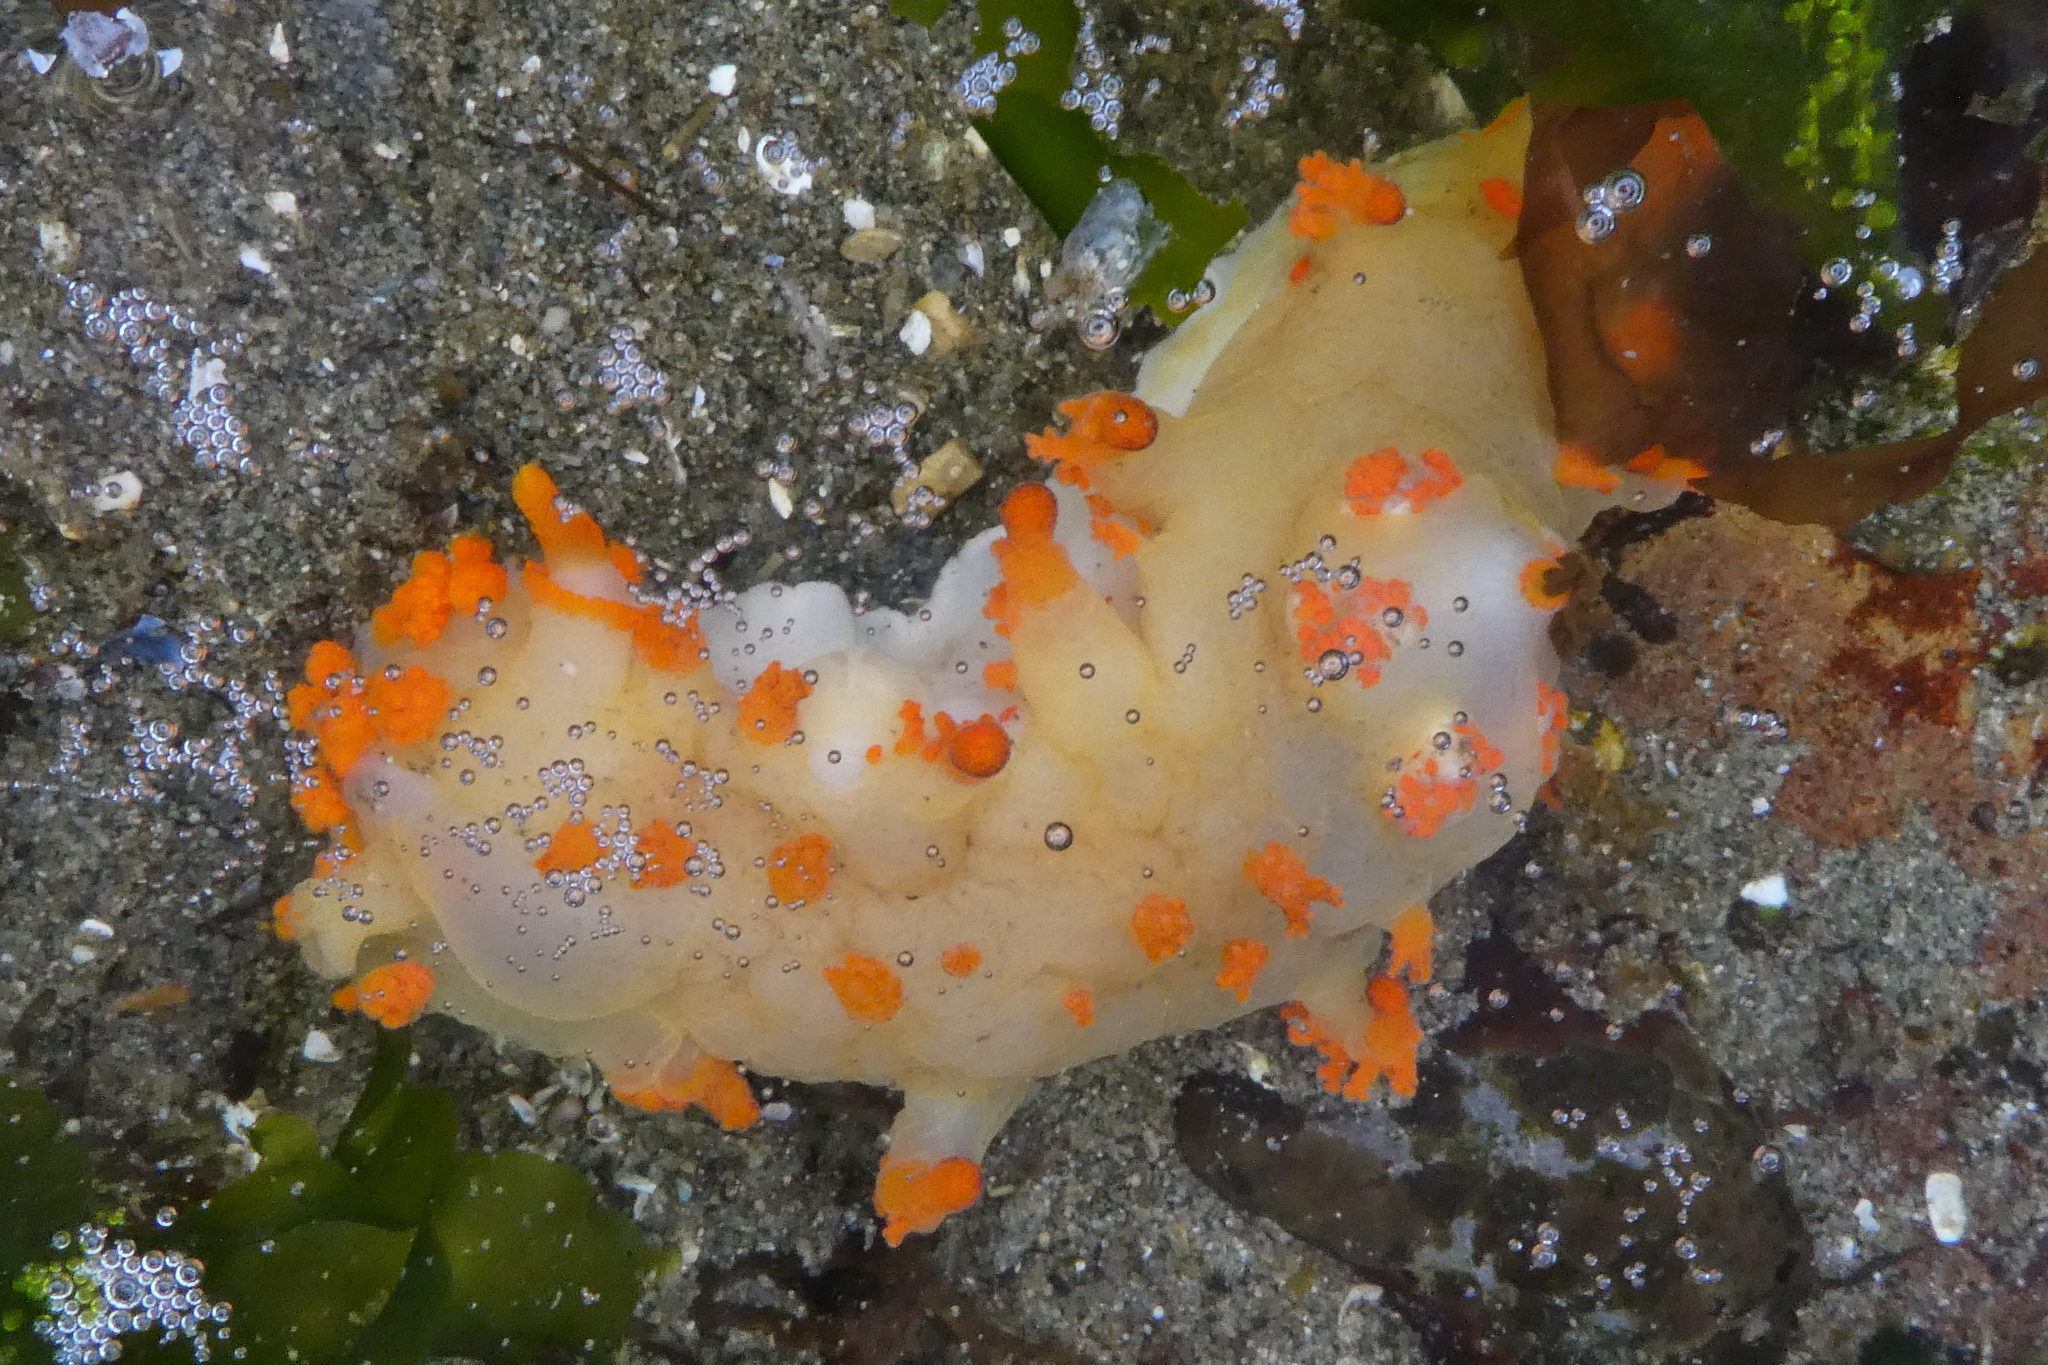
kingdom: Animalia
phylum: Mollusca
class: Gastropoda
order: Nudibranchia
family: Polyceridae
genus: Triopha
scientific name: Triopha modesta
